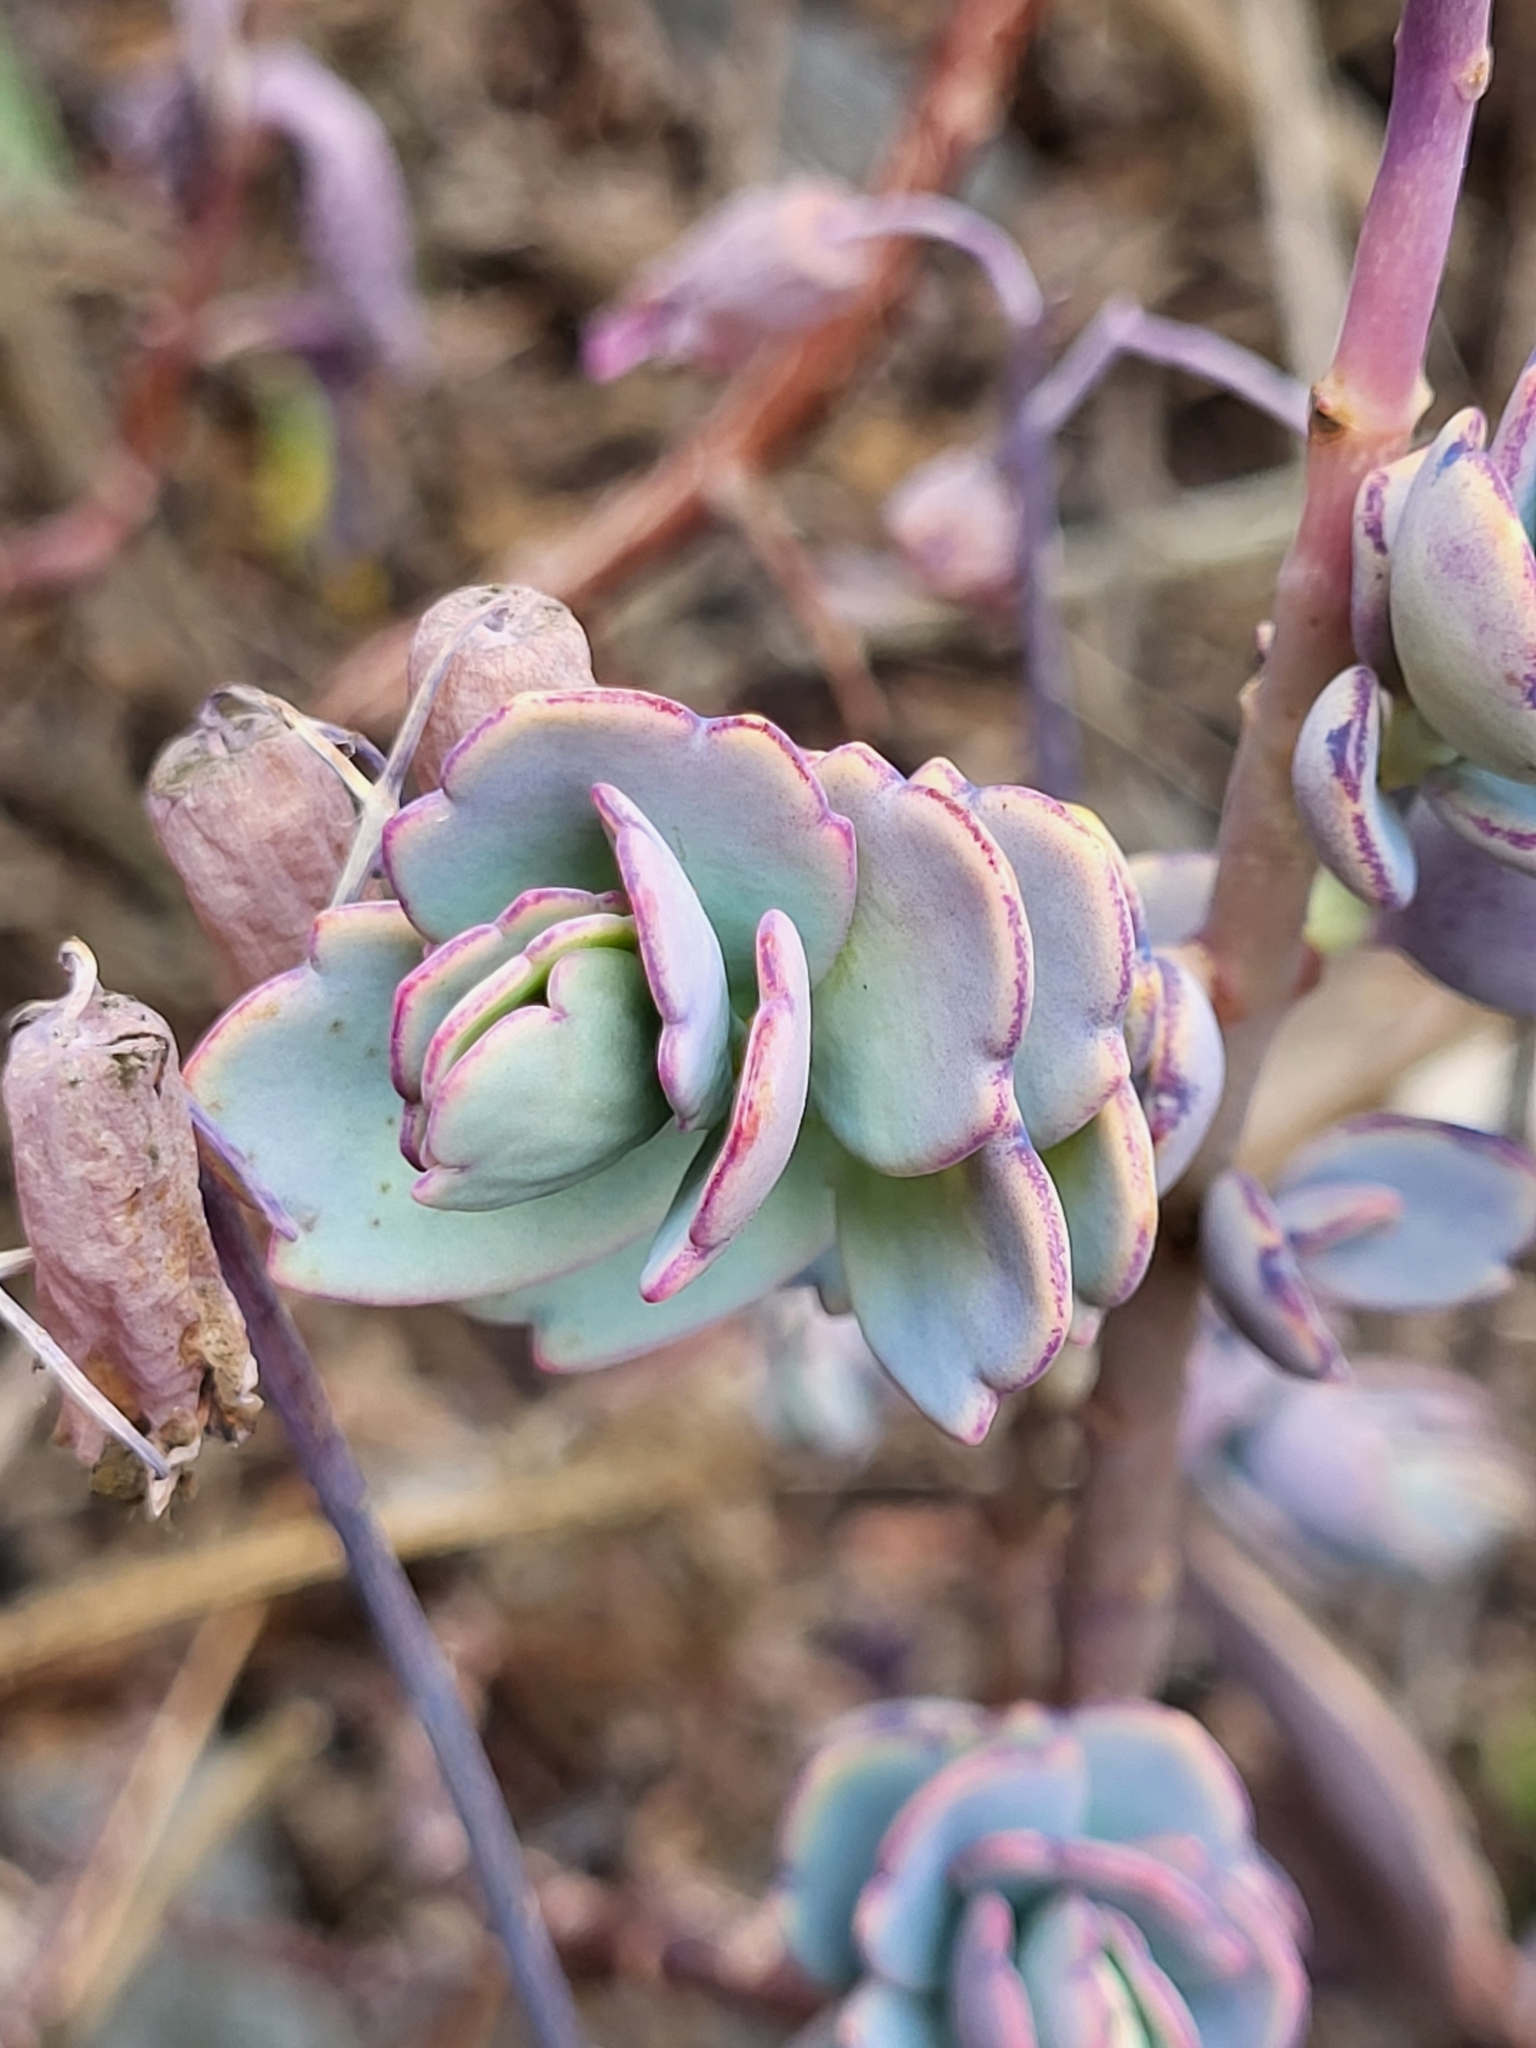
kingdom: Plantae
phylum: Tracheophyta
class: Magnoliopsida
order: Saxifragales
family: Crassulaceae
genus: Kalanchoe
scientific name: Kalanchoe fedtschenkoi
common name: Lavender scallops
